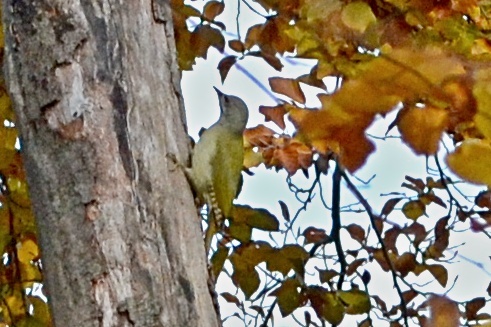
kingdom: Animalia
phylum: Chordata
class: Aves
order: Piciformes
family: Picidae
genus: Picus
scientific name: Picus canus
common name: Grey-headed woodpecker
